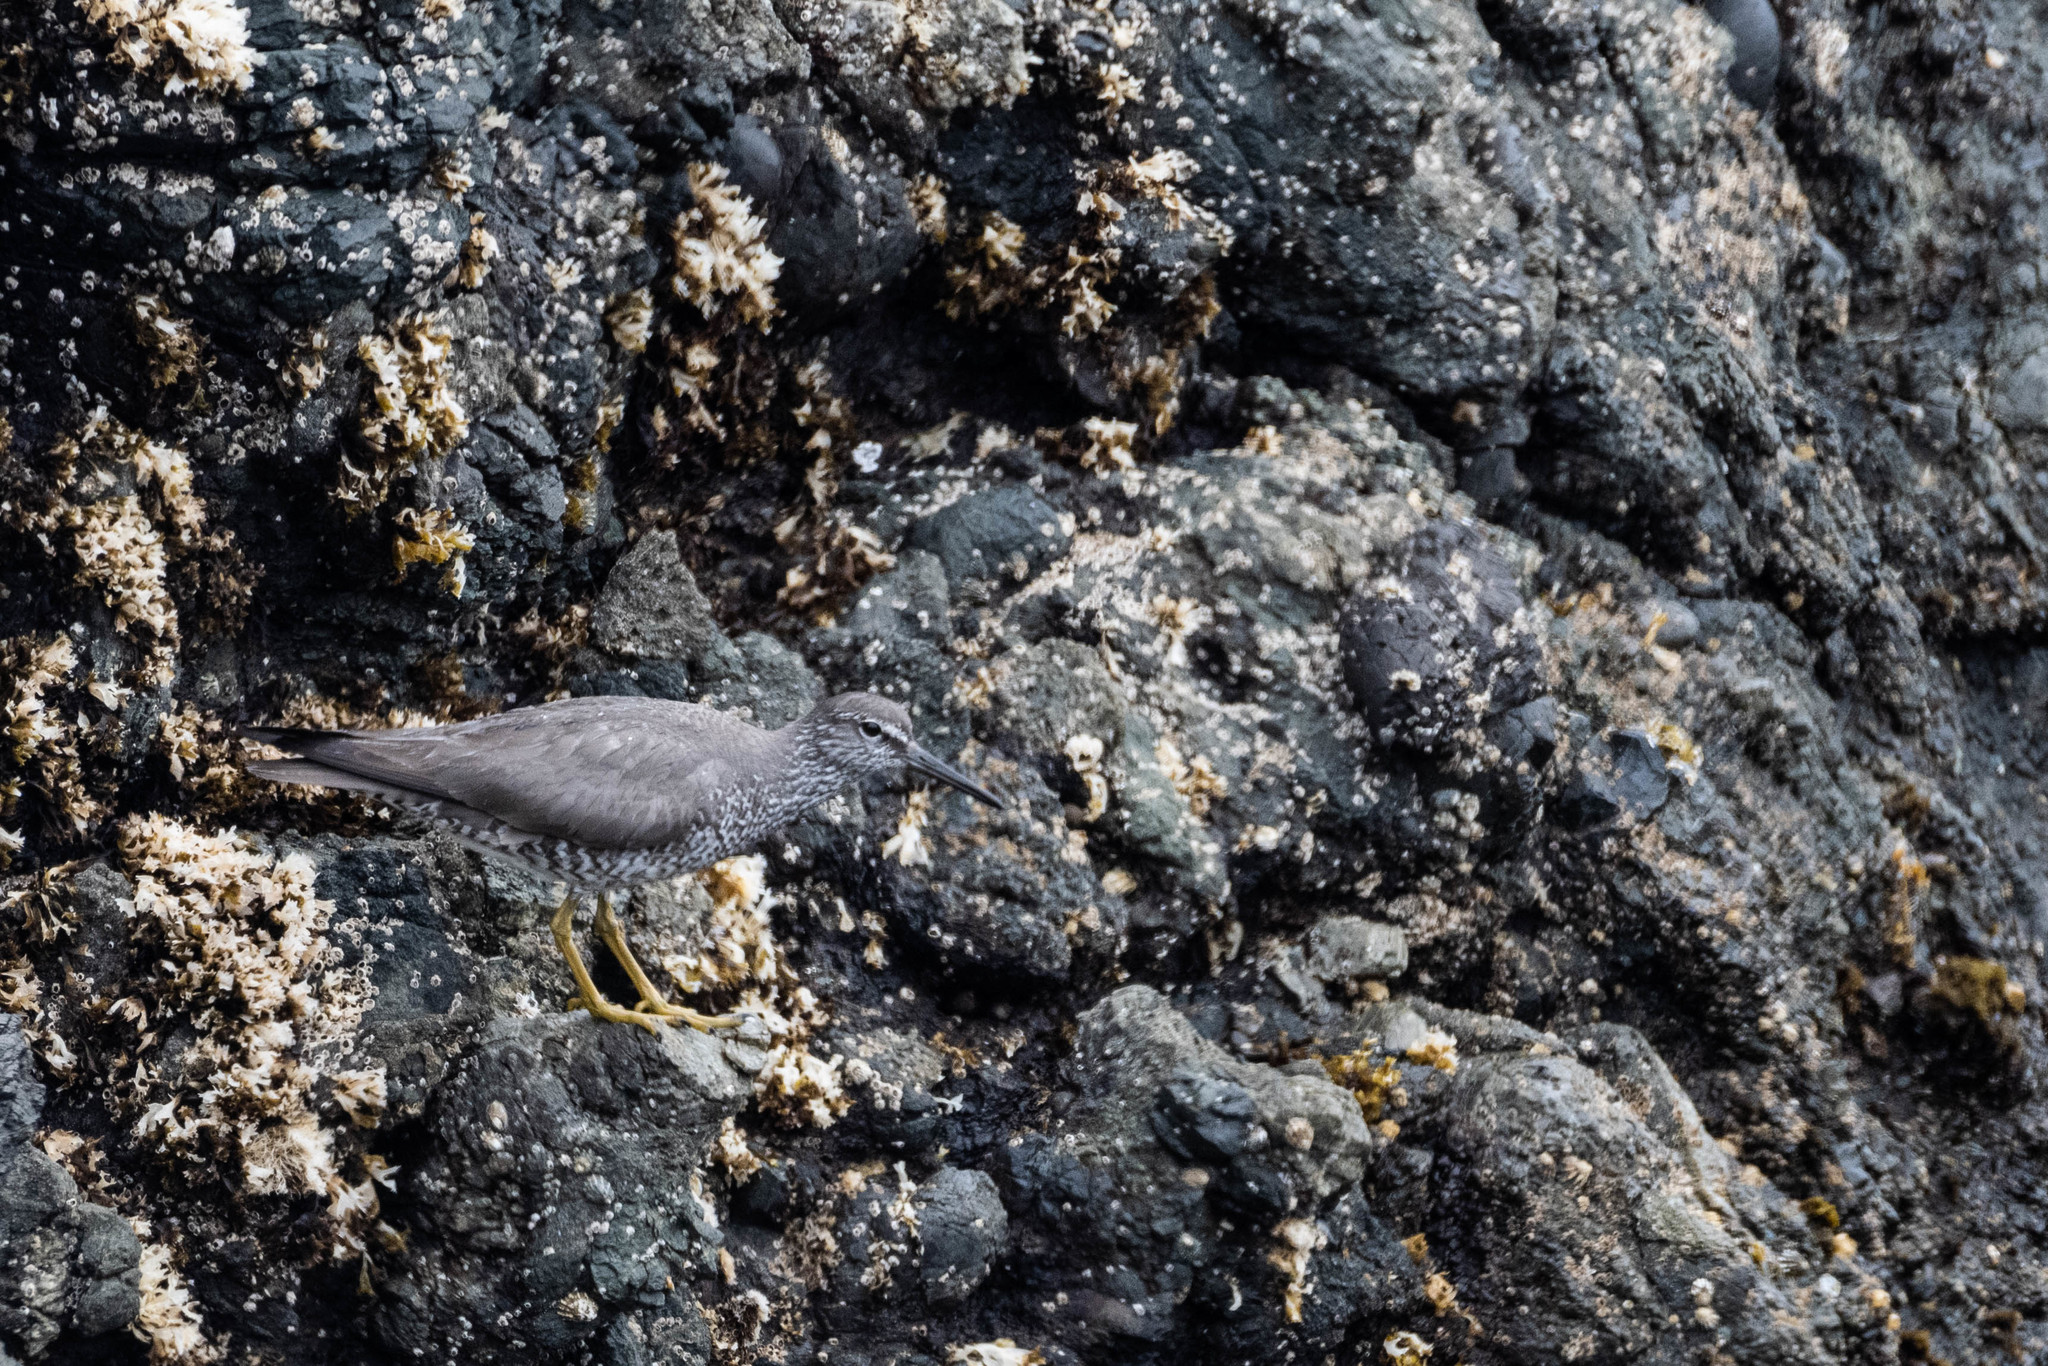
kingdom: Animalia
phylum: Chordata
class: Aves
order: Charadriiformes
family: Scolopacidae
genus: Tringa
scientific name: Tringa incana
